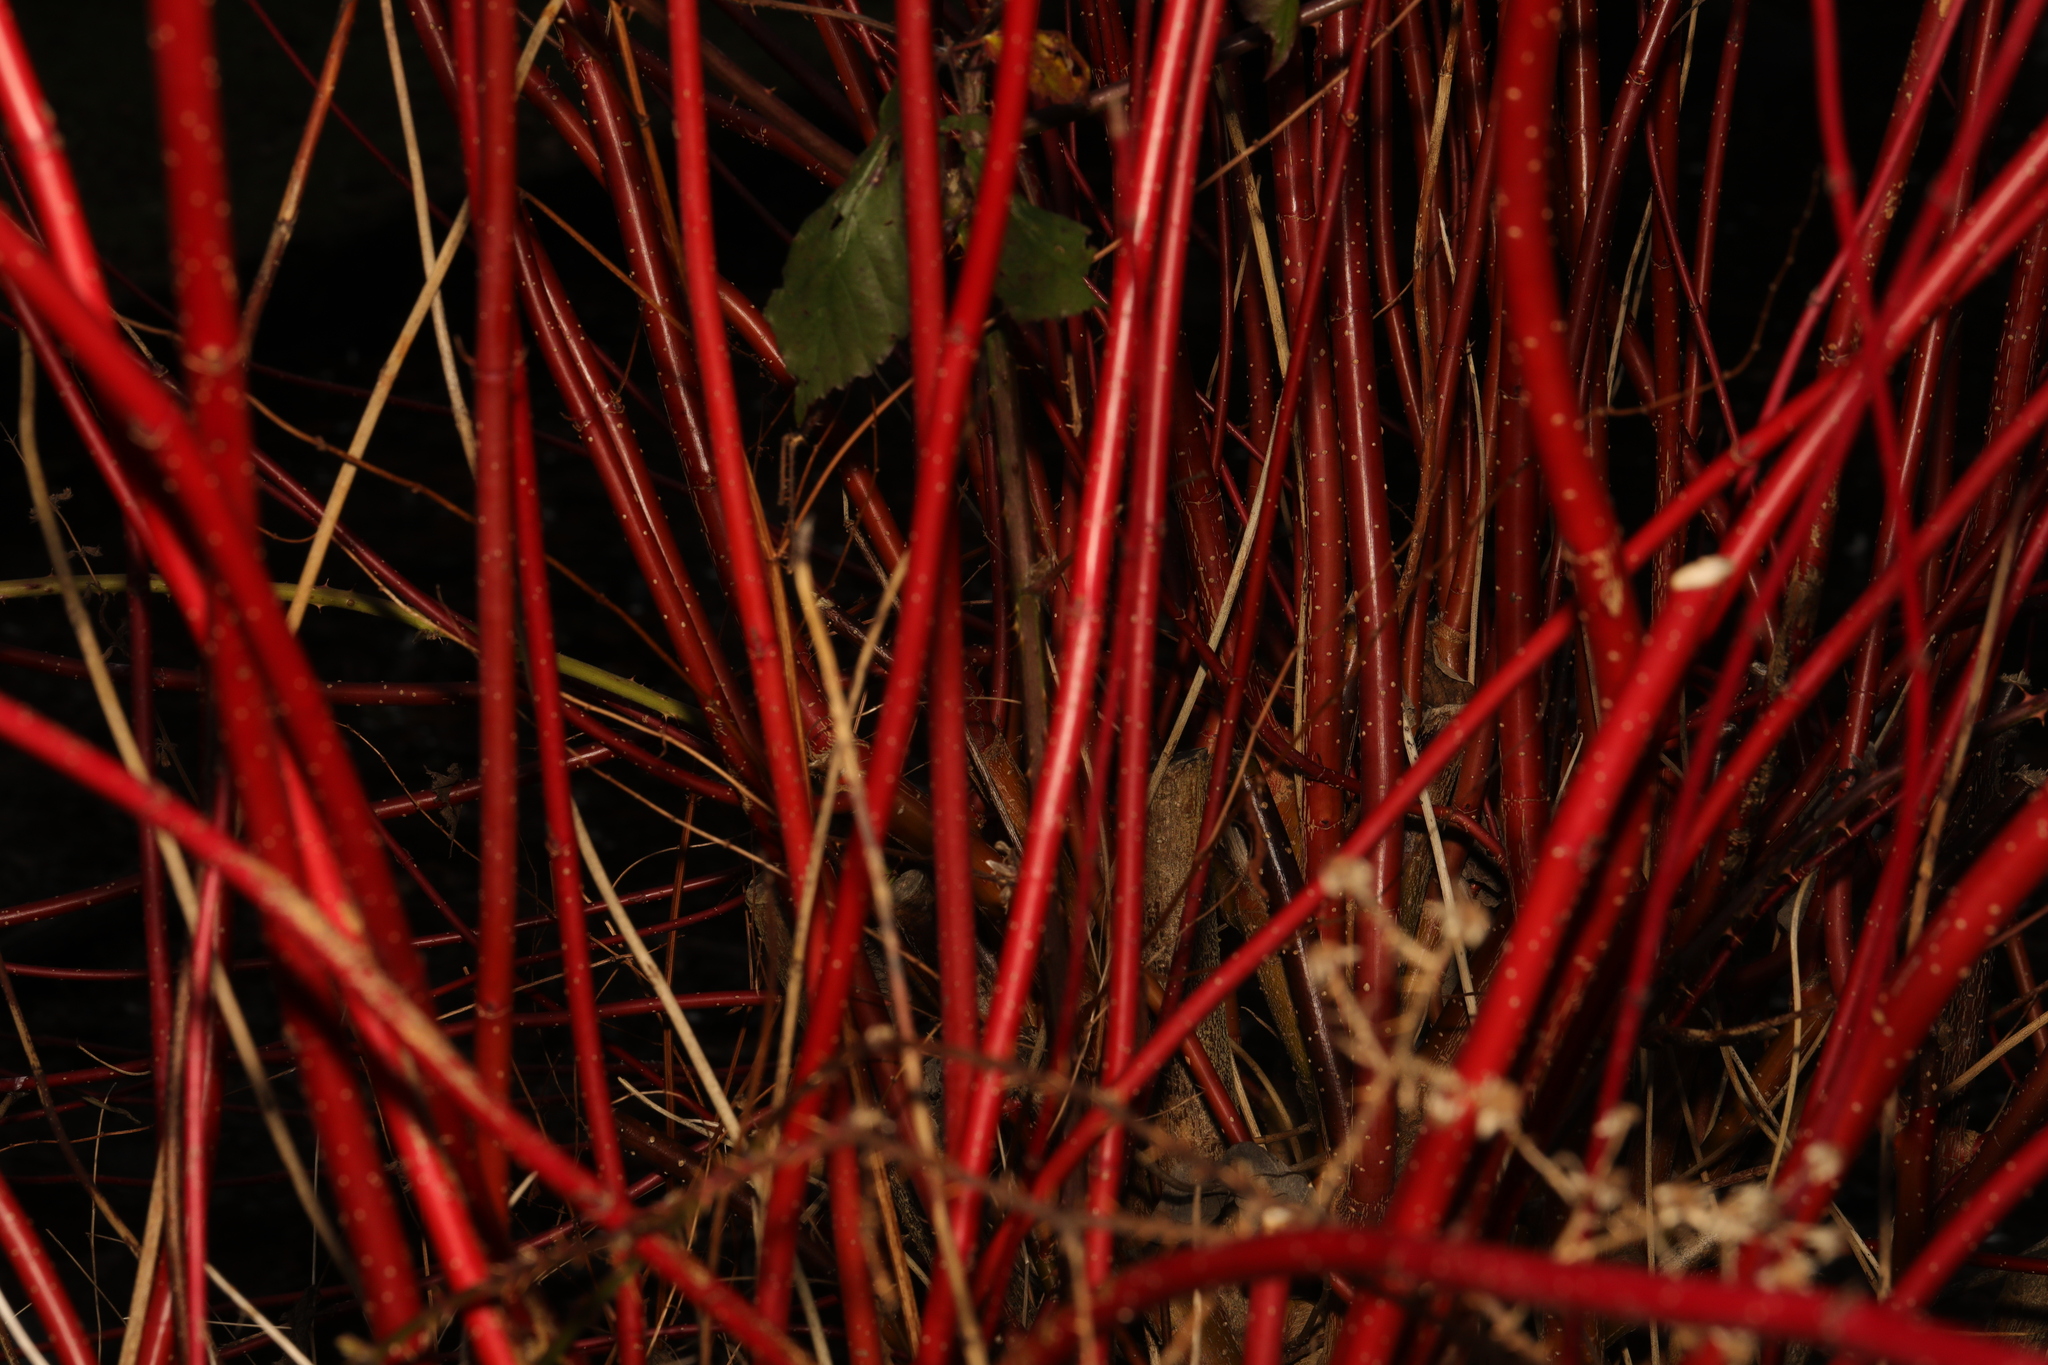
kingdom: Plantae
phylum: Tracheophyta
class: Magnoliopsida
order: Cornales
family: Cornaceae
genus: Cornus
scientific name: Cornus alba
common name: White dogwood
